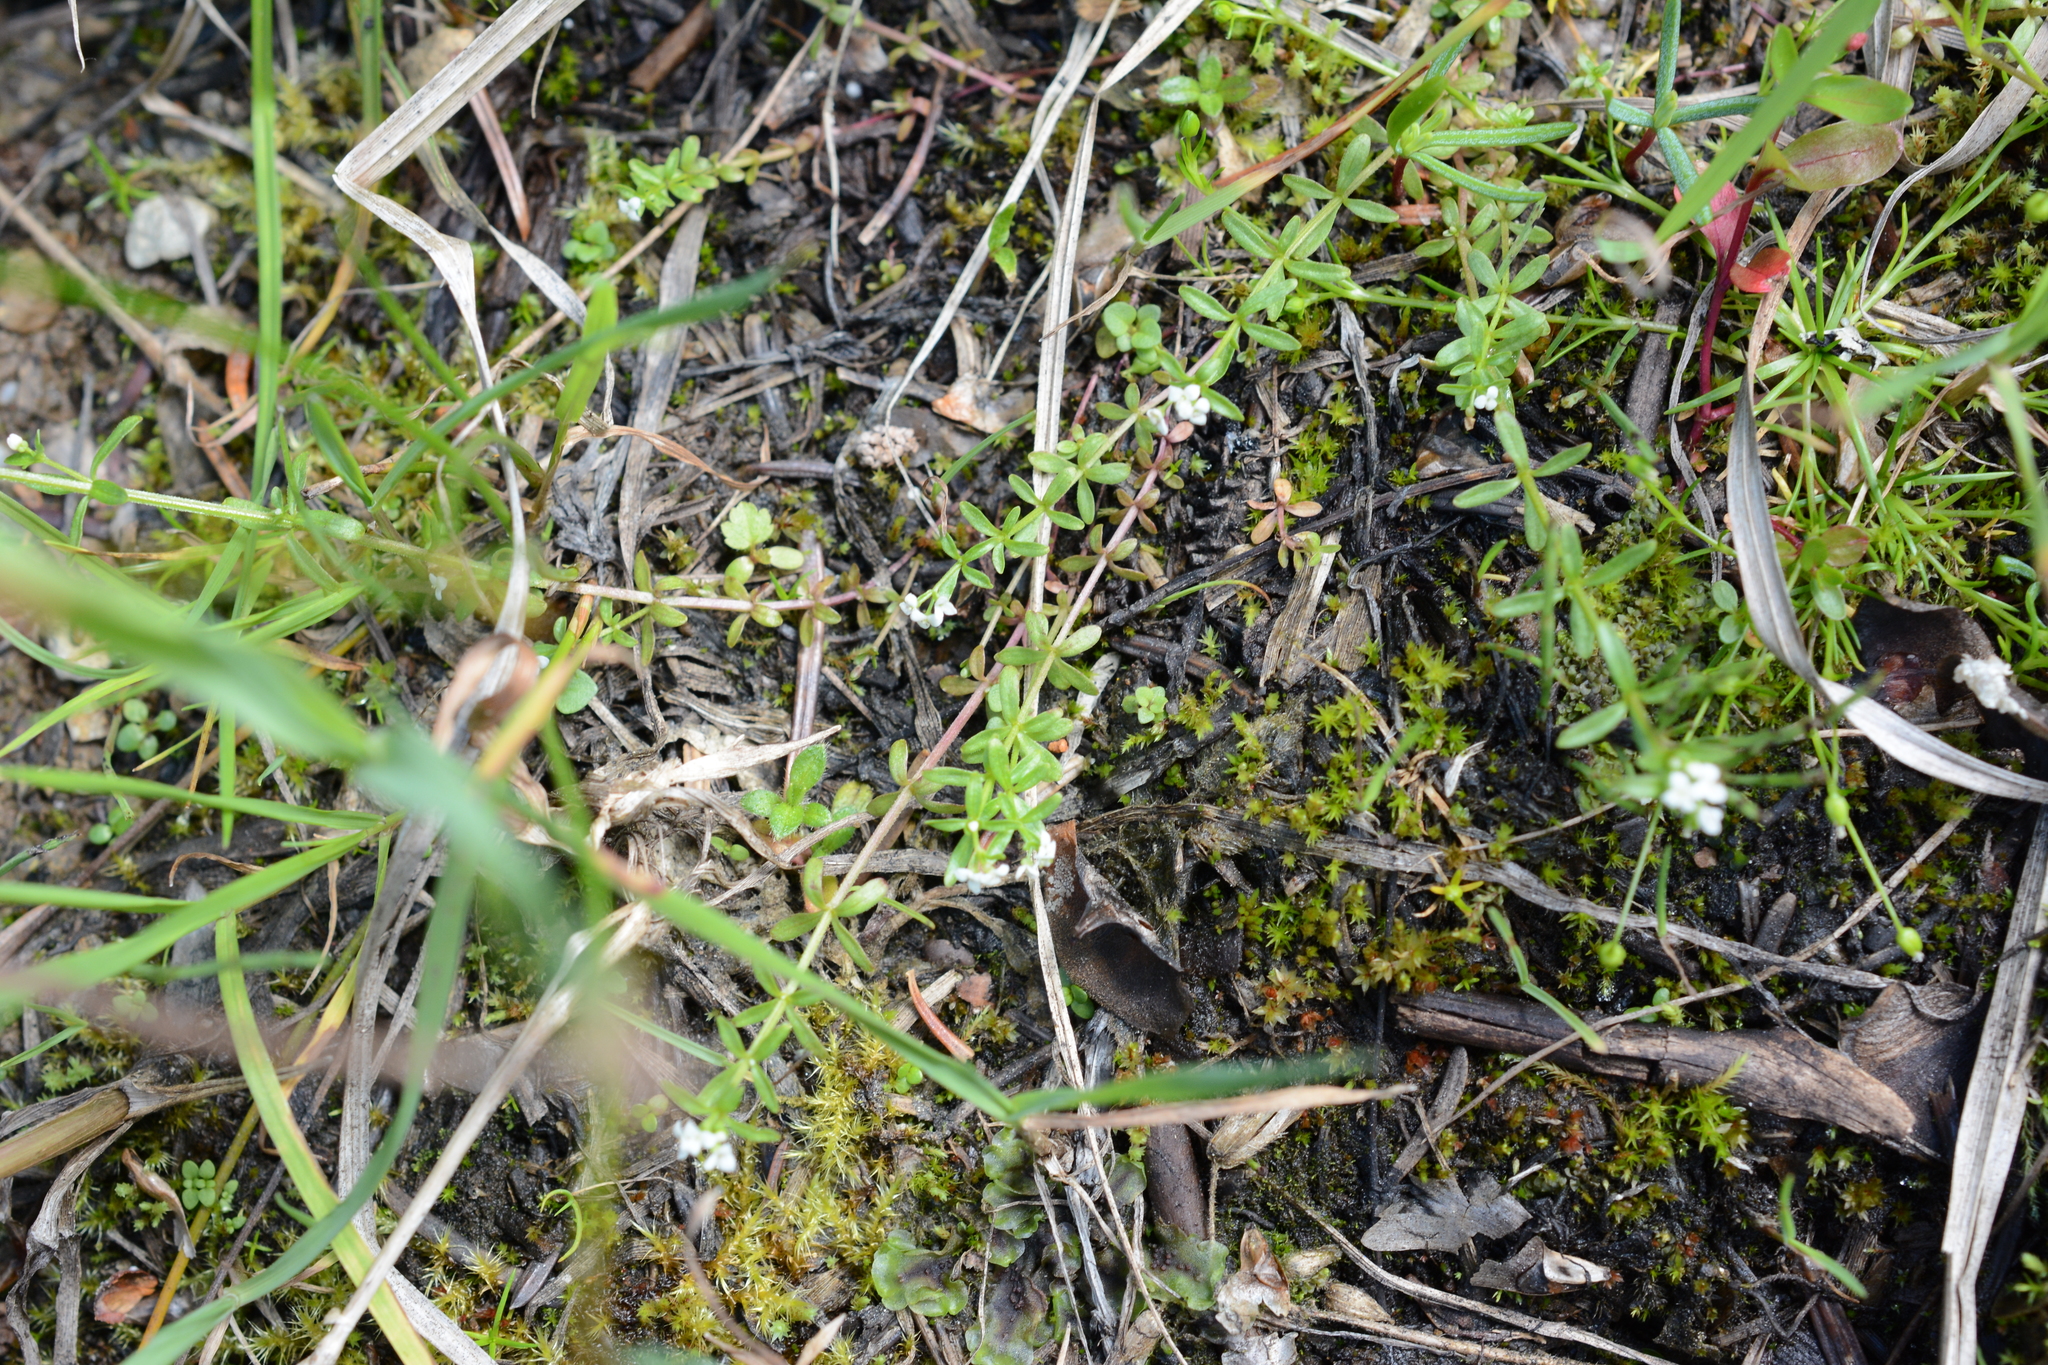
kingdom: Plantae
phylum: Tracheophyta
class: Magnoliopsida
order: Gentianales
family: Rubiaceae
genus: Galium
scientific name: Galium trifidum
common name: Small bedstraw
